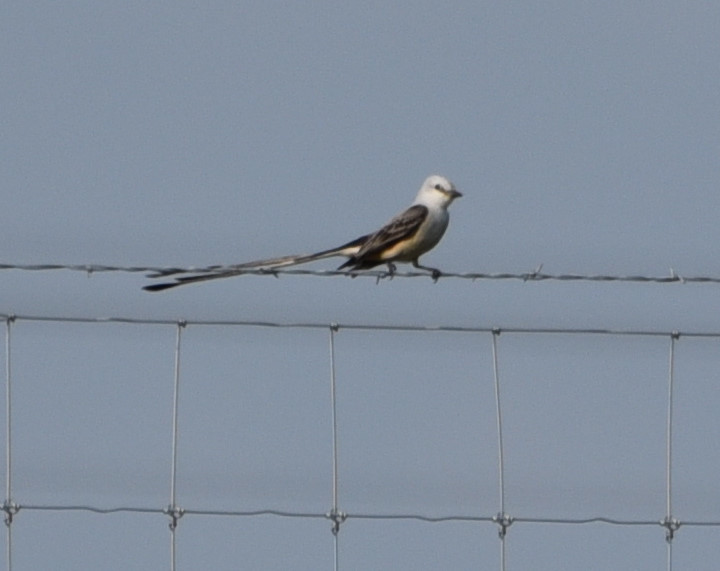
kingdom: Animalia
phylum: Chordata
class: Aves
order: Passeriformes
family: Tyrannidae
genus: Tyrannus
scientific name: Tyrannus forficatus
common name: Scissor-tailed flycatcher
